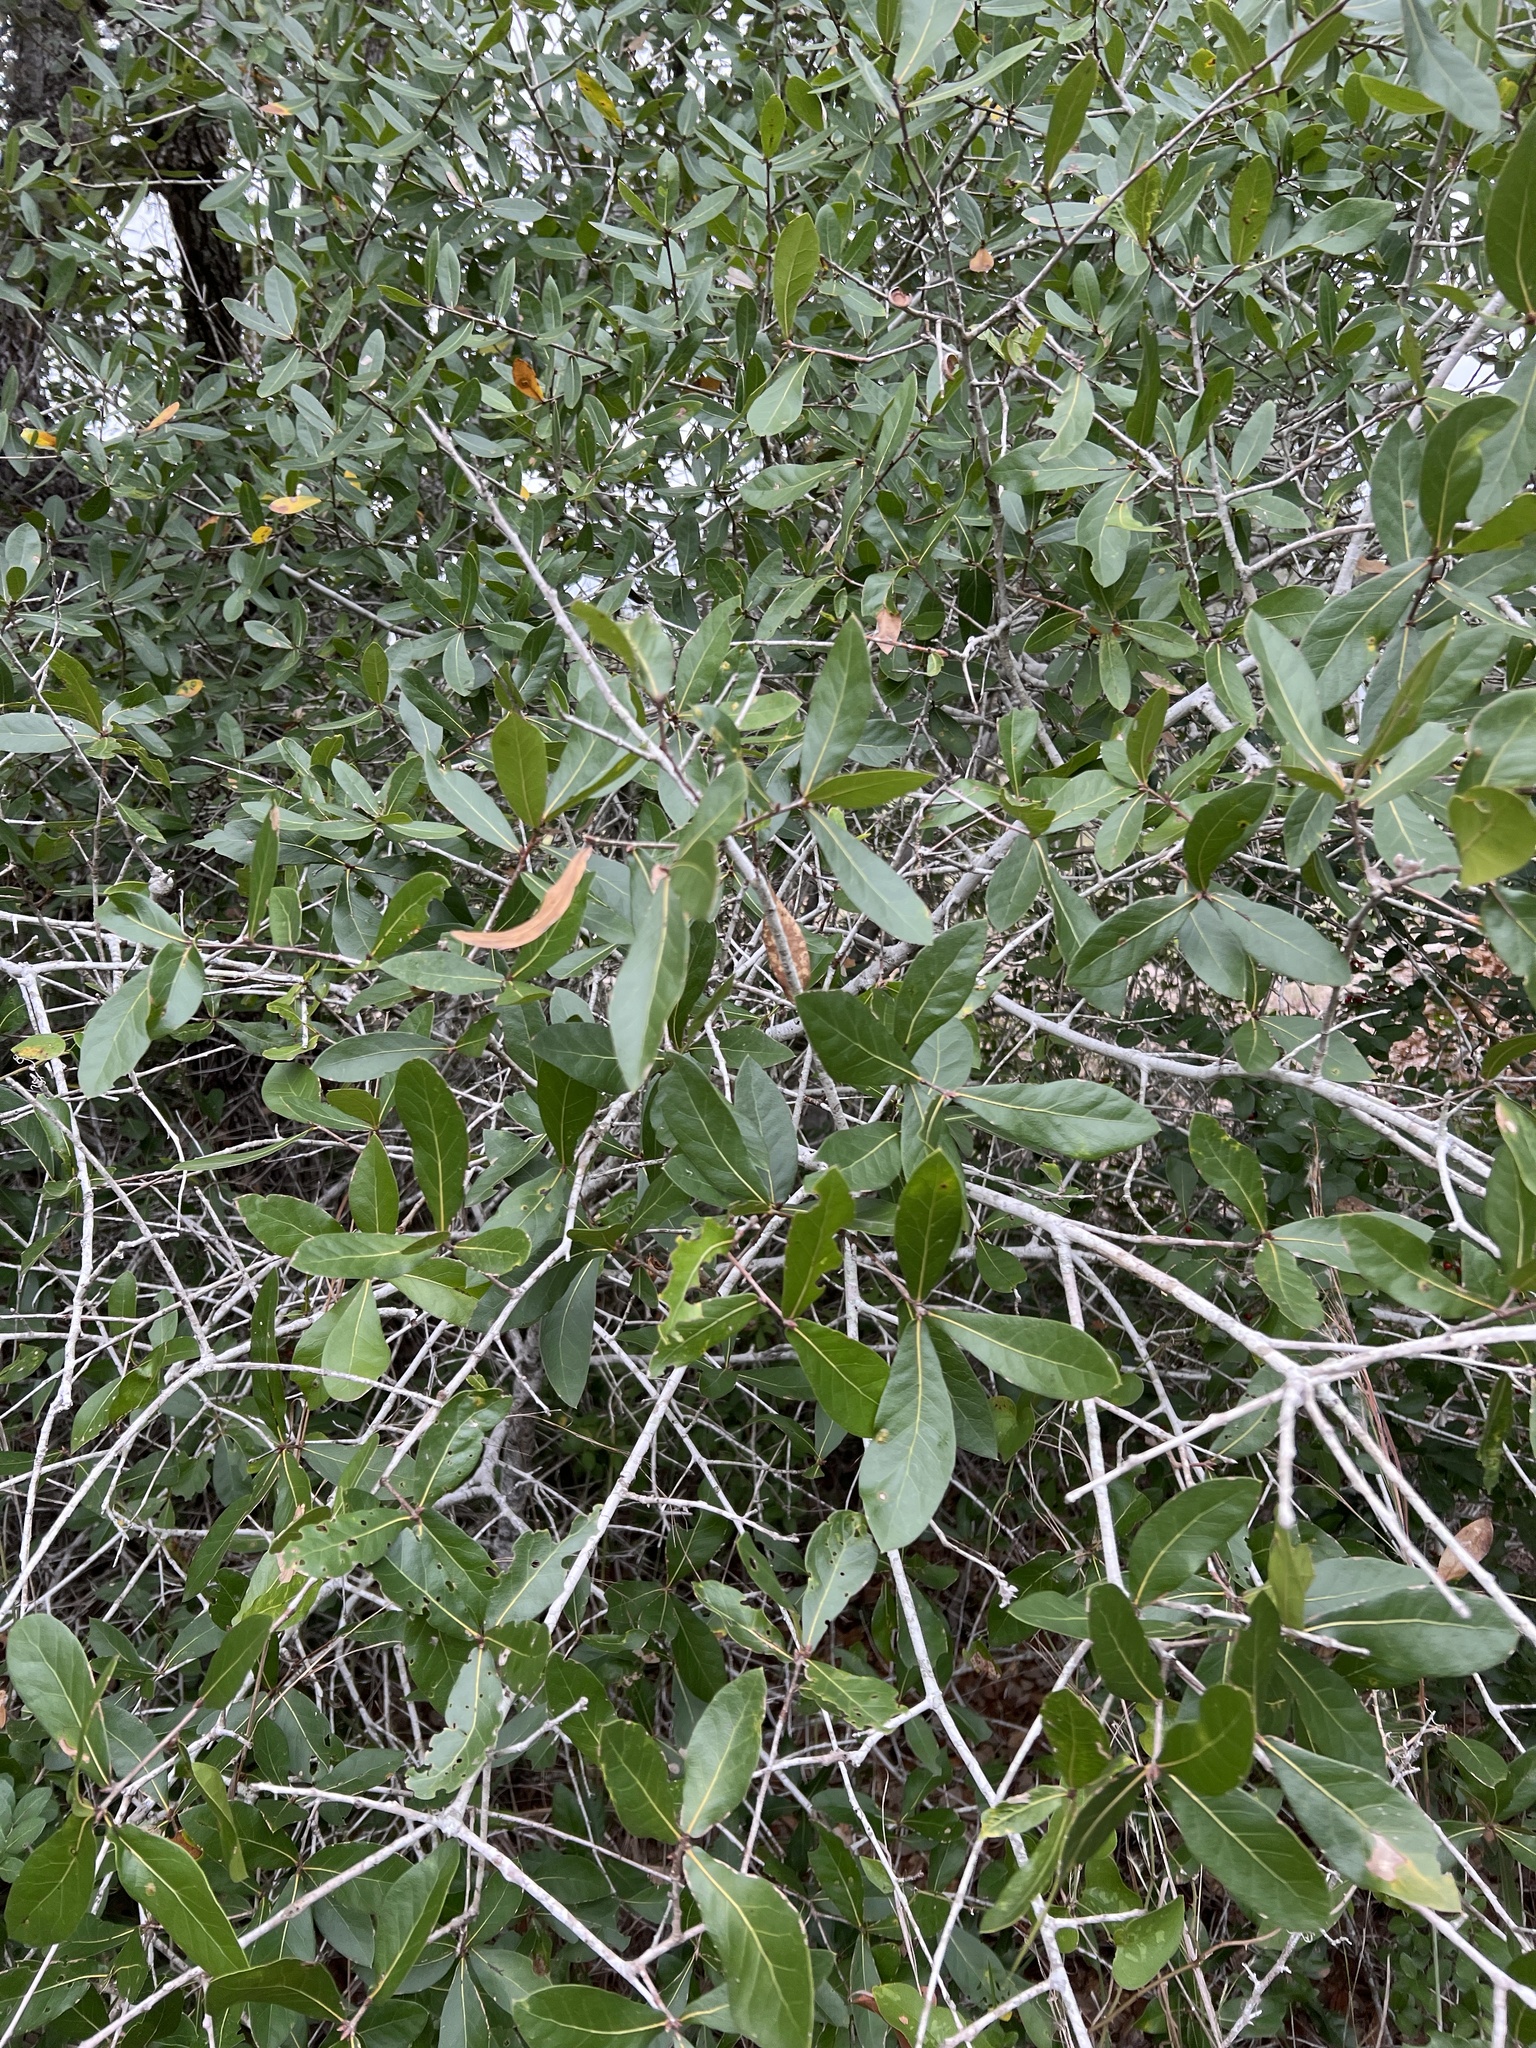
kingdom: Plantae
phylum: Tracheophyta
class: Magnoliopsida
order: Fagales
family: Fagaceae
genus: Quercus
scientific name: Quercus laurifolia
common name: Swamp laurel oak
